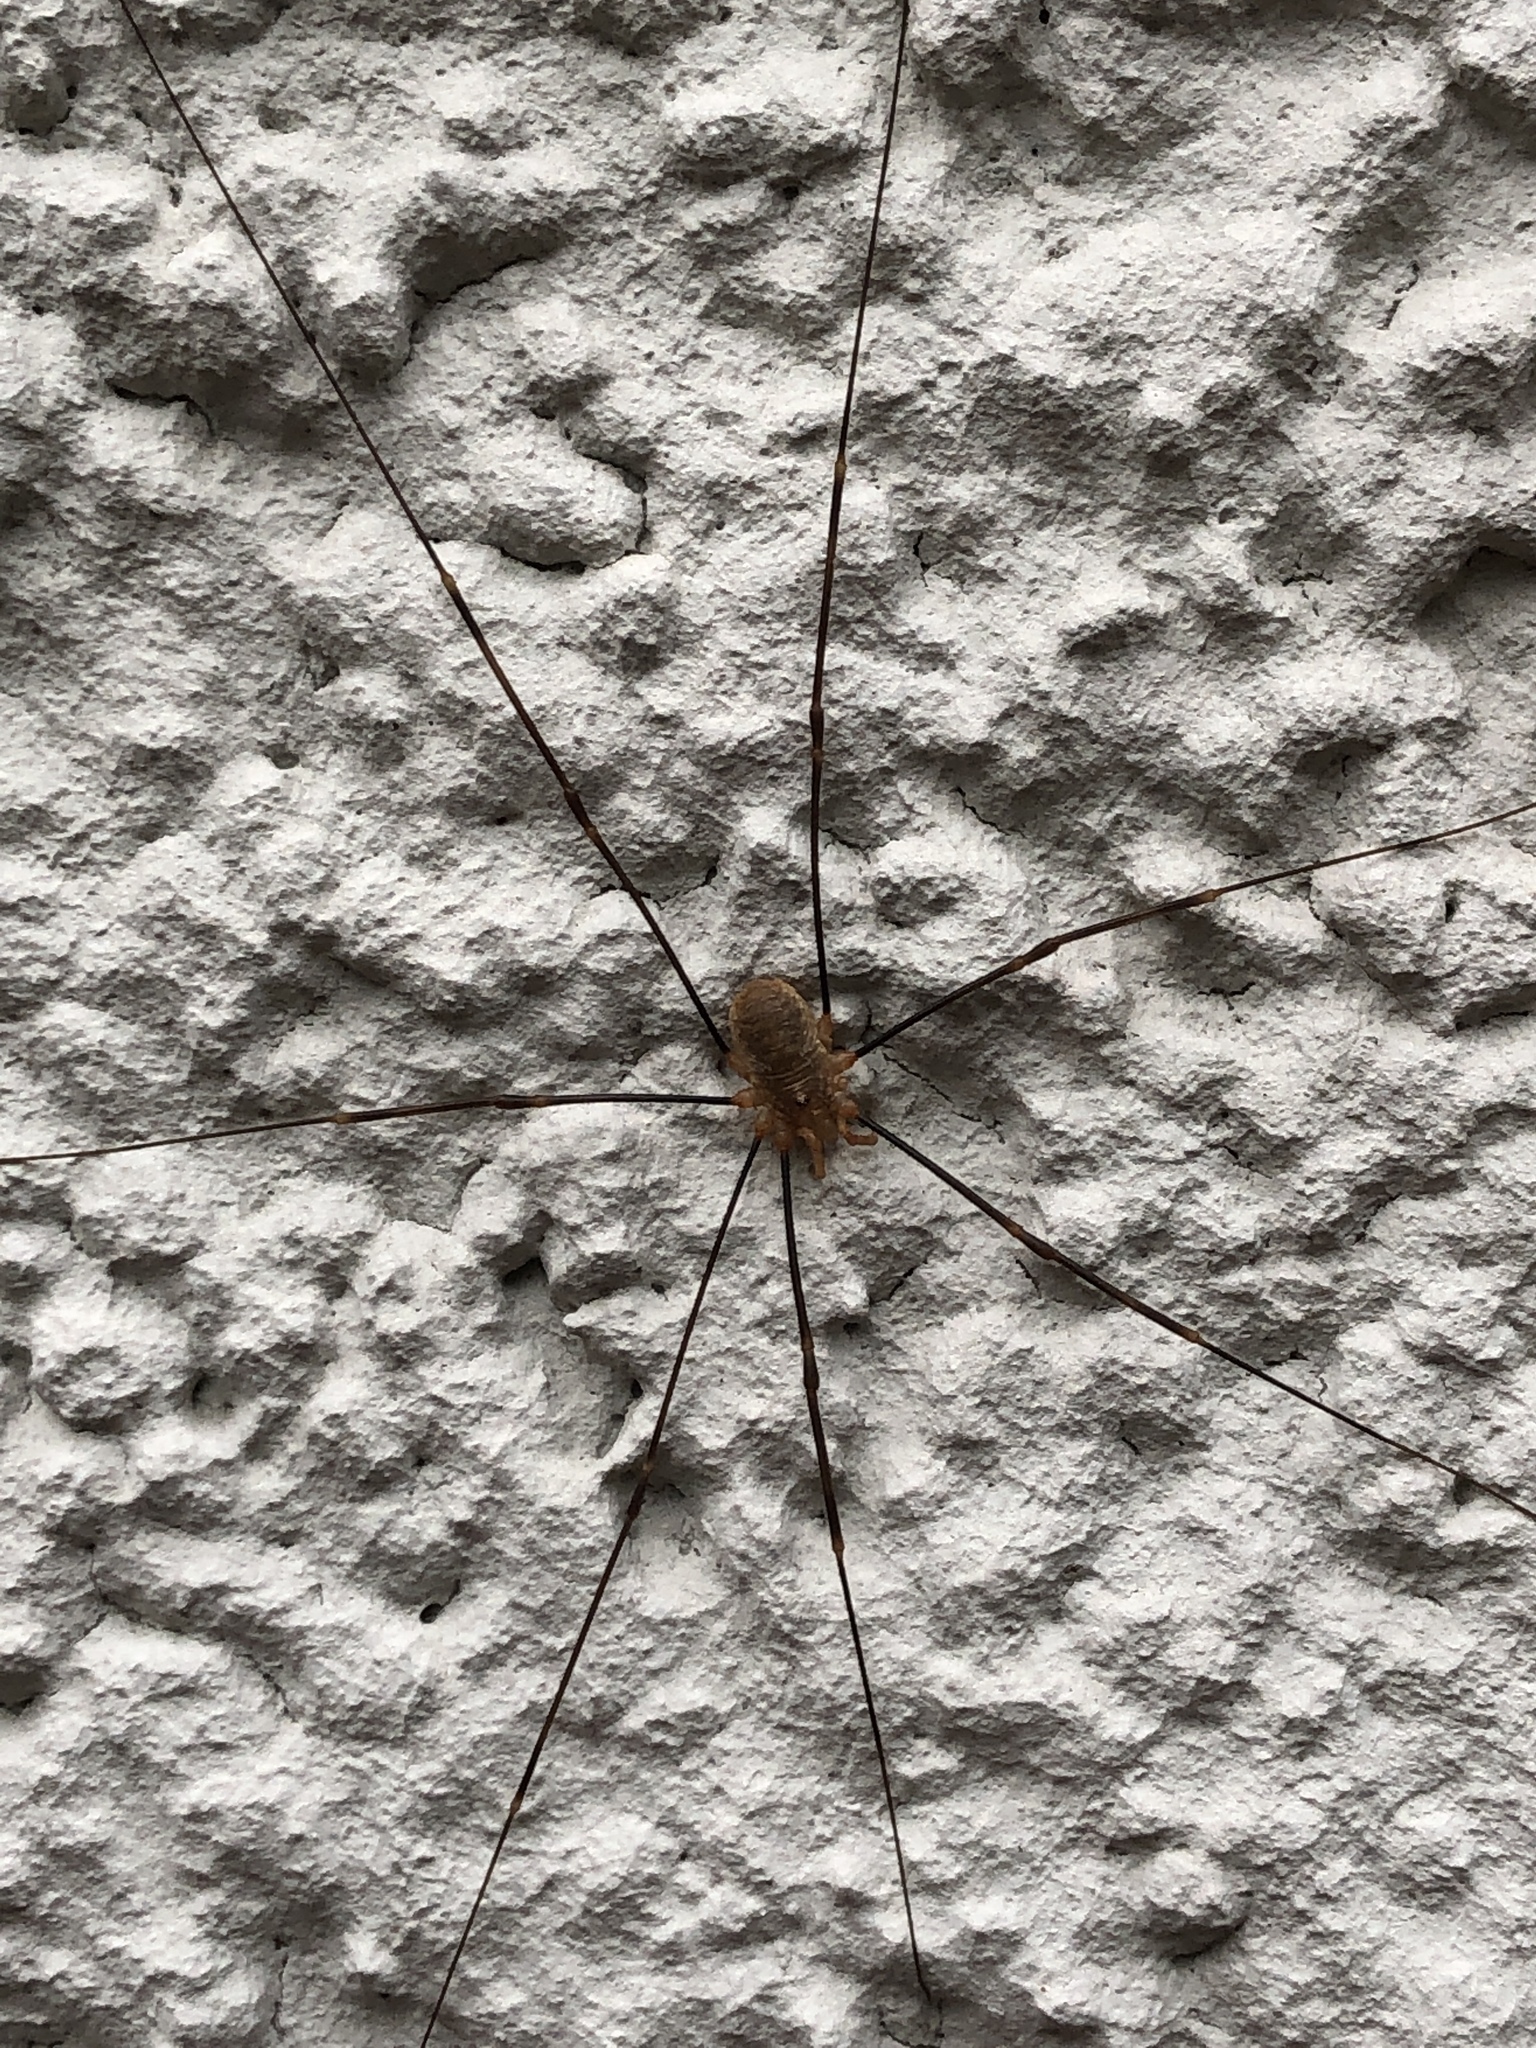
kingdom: Animalia
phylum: Arthropoda
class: Arachnida
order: Opiliones
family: Phalangiidae
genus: Opilio
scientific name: Opilio canestrinii
